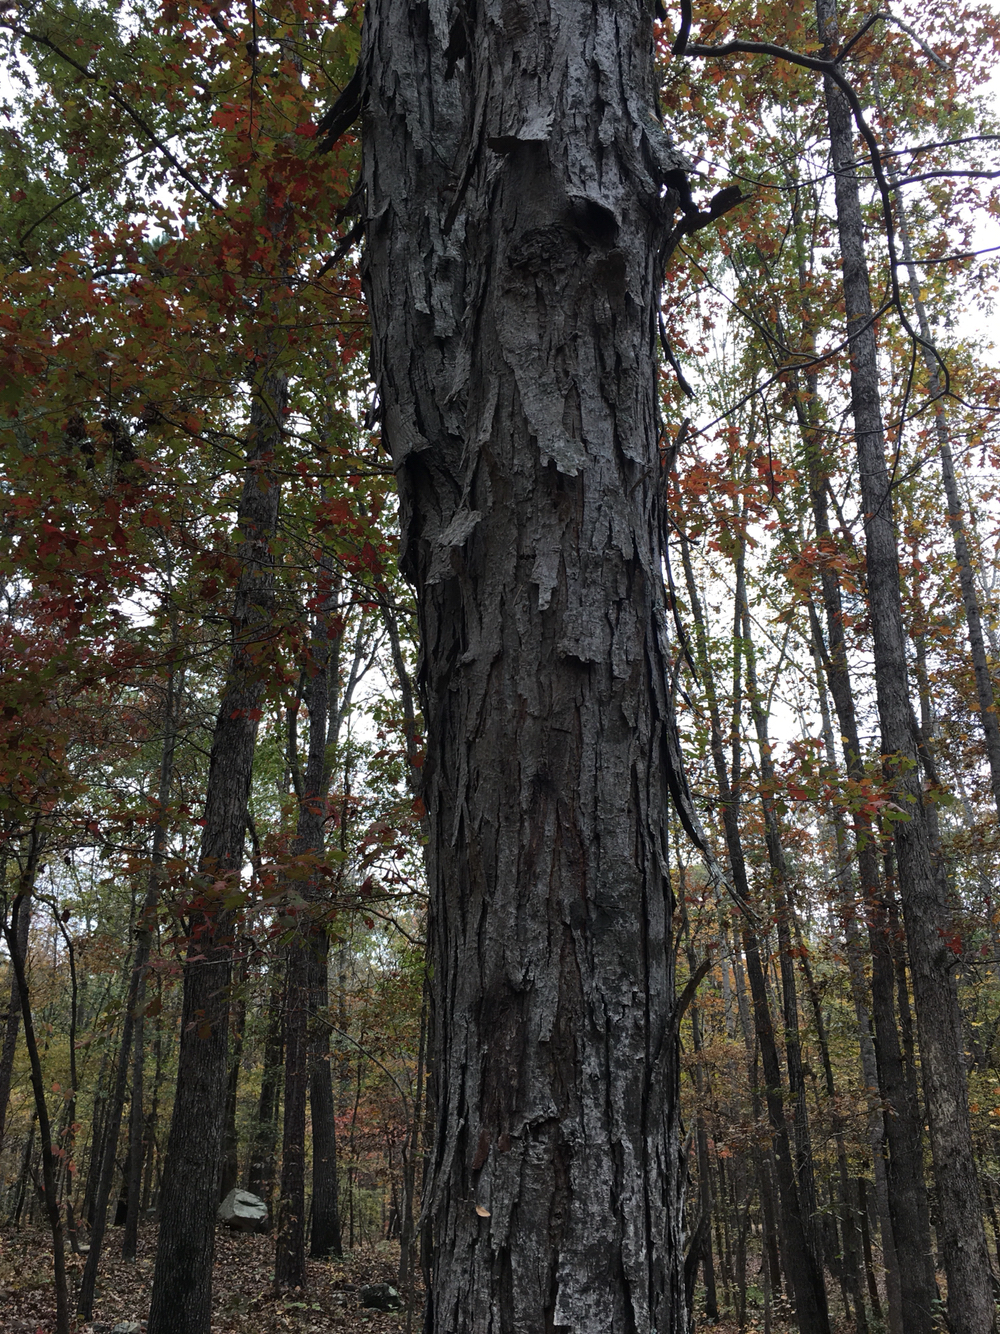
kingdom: Plantae
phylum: Tracheophyta
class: Magnoliopsida
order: Fagales
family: Juglandaceae
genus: Carya
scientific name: Carya carolinae-septentrionalis
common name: Carolina hickory
